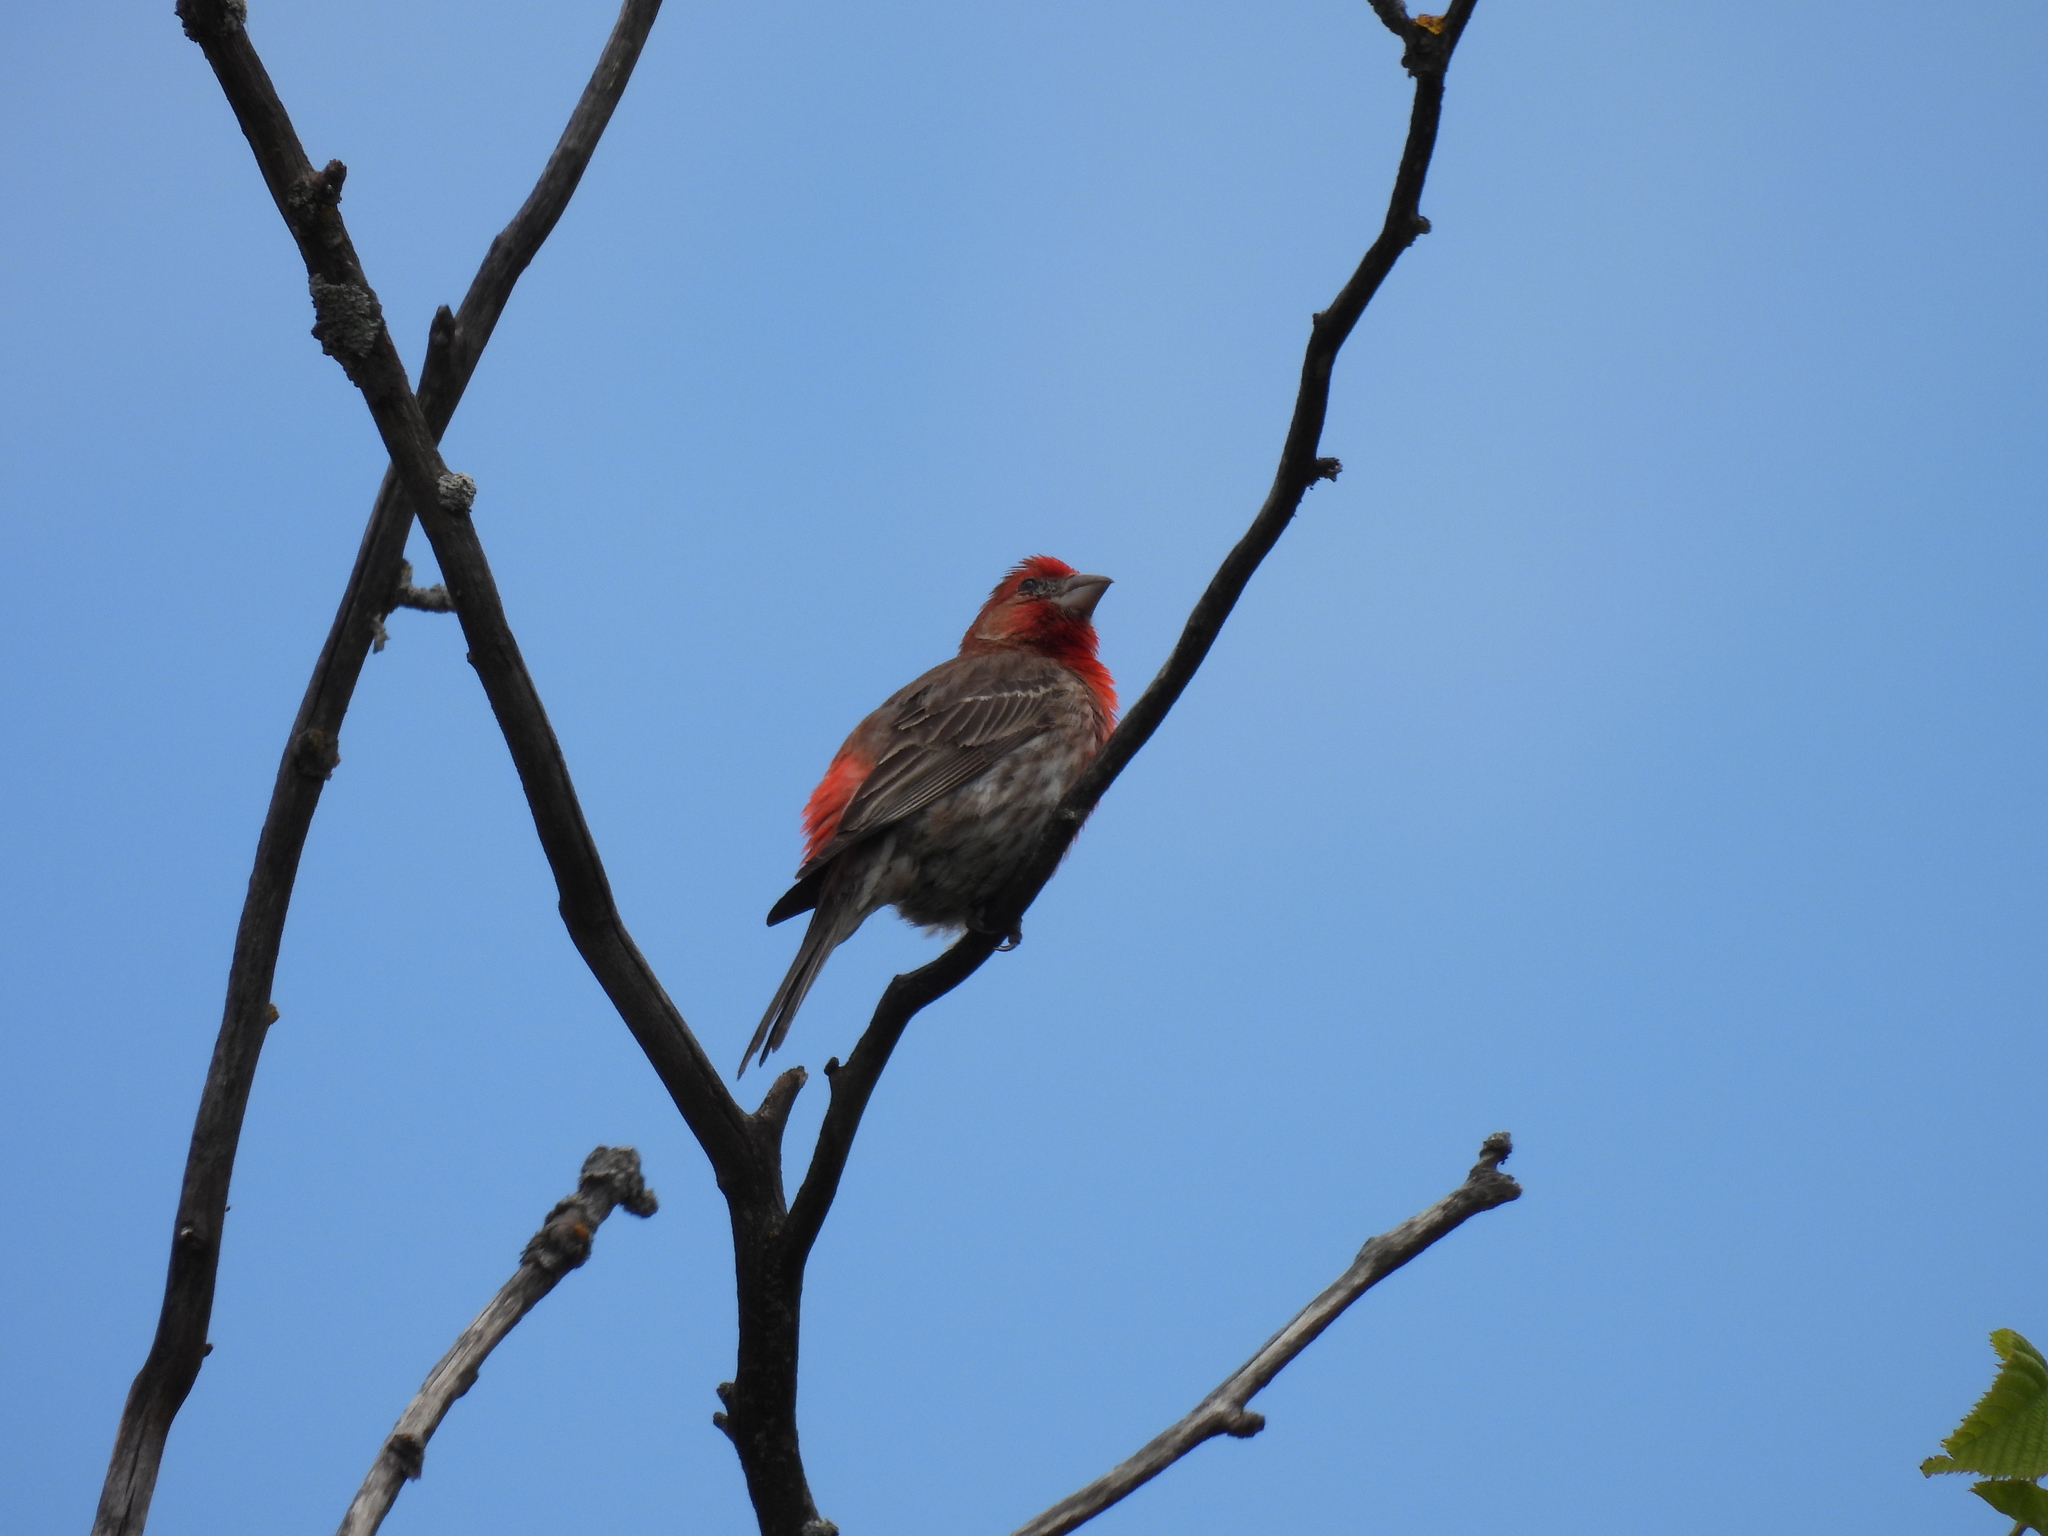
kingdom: Animalia
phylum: Chordata
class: Aves
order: Passeriformes
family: Fringillidae
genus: Haemorhous
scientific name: Haemorhous mexicanus
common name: House finch
